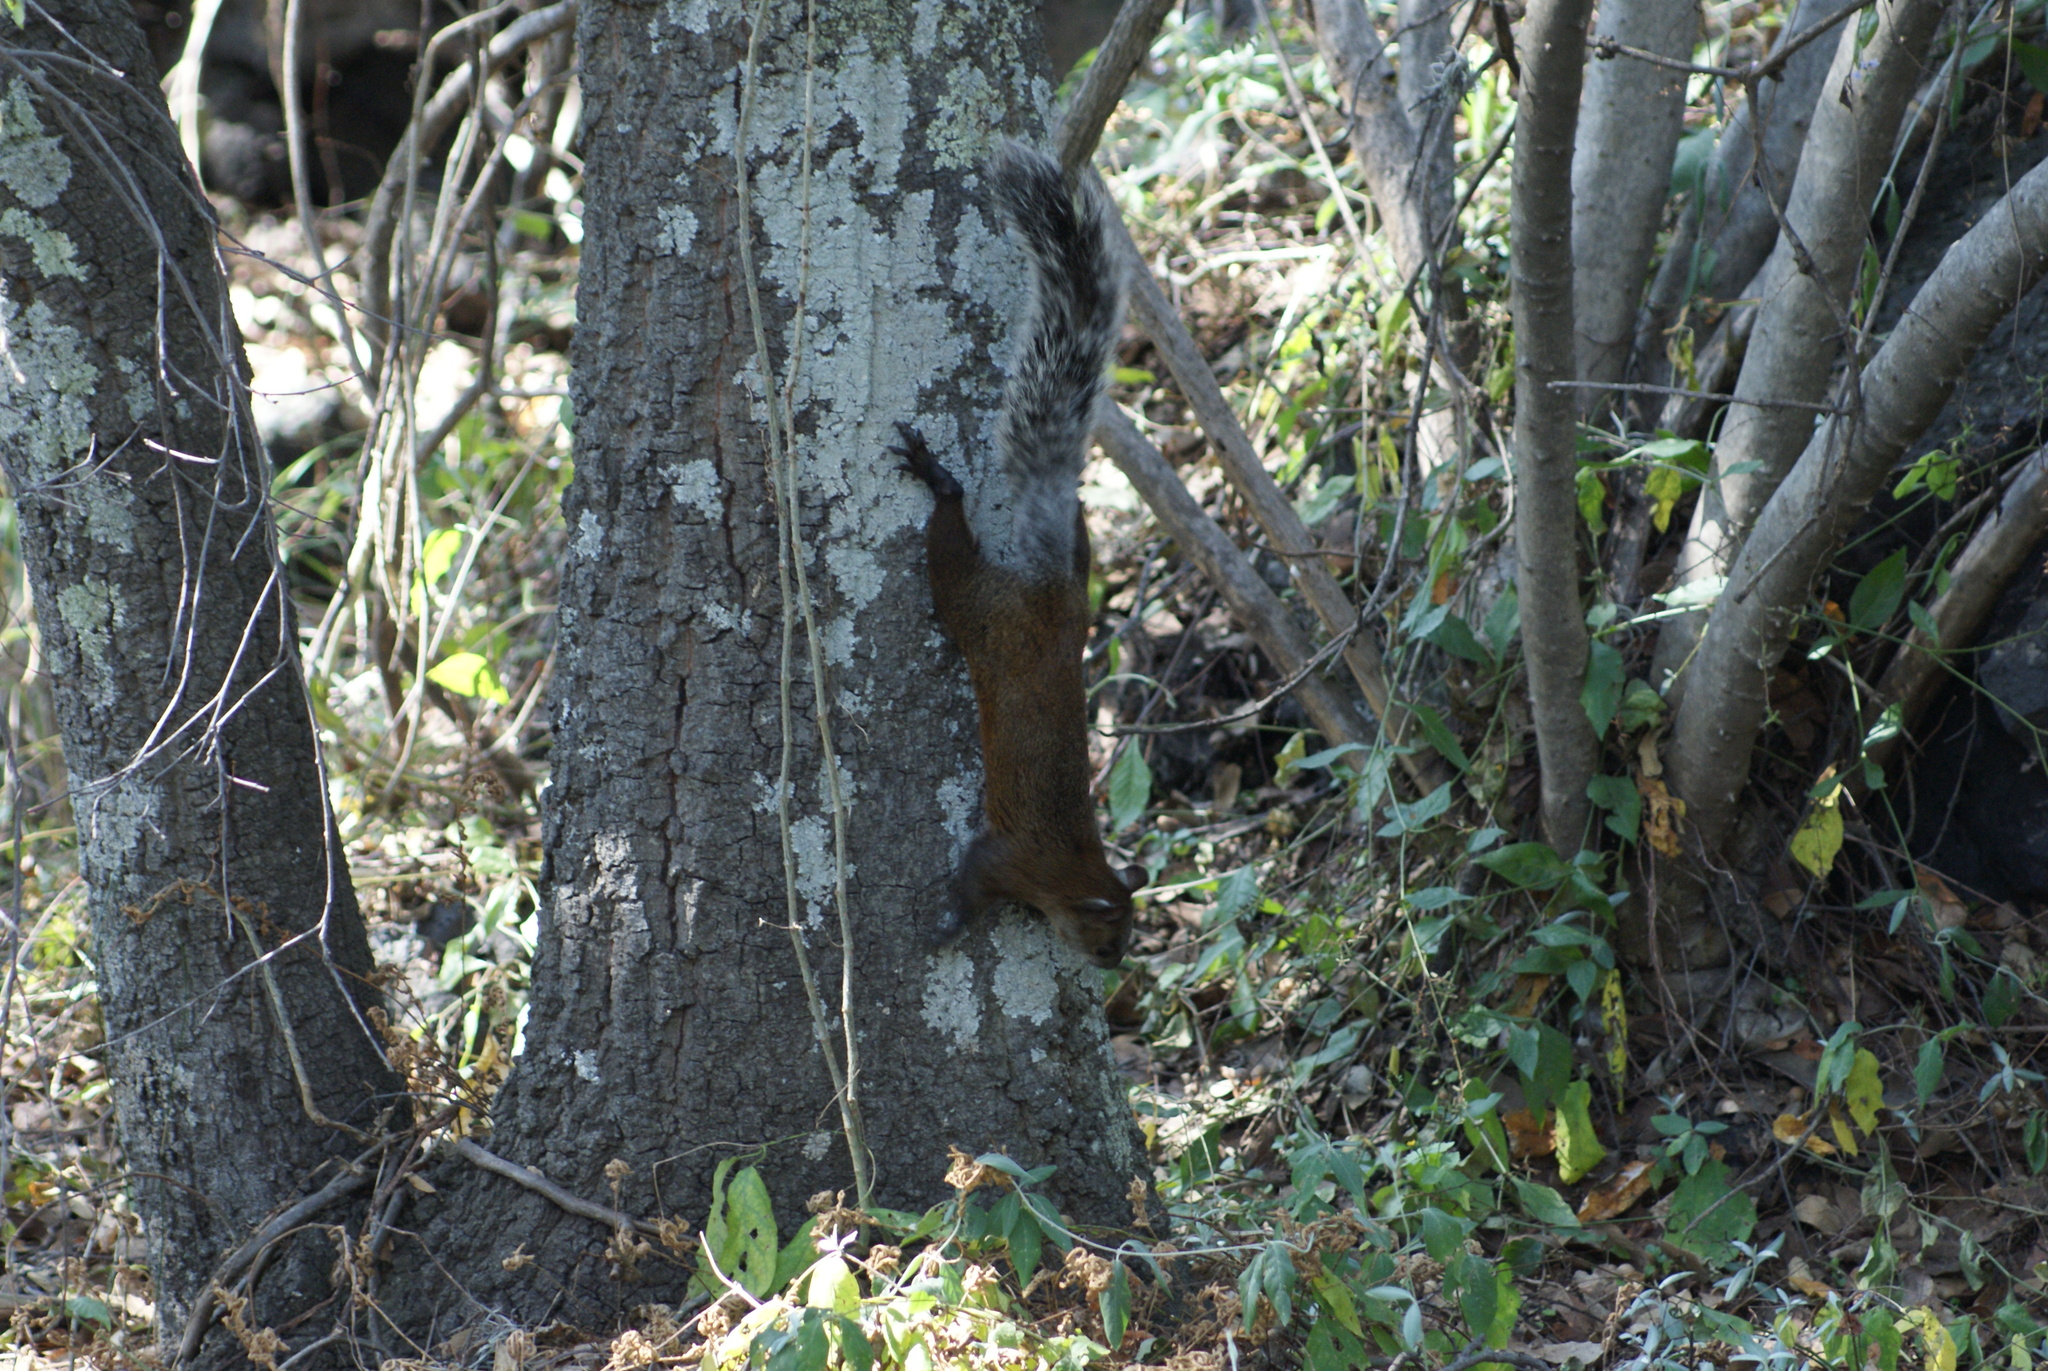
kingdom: Animalia
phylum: Chordata
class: Mammalia
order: Rodentia
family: Sciuridae
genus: Sciurus
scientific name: Sciurus aureogaster
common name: Red-bellied squirrel
